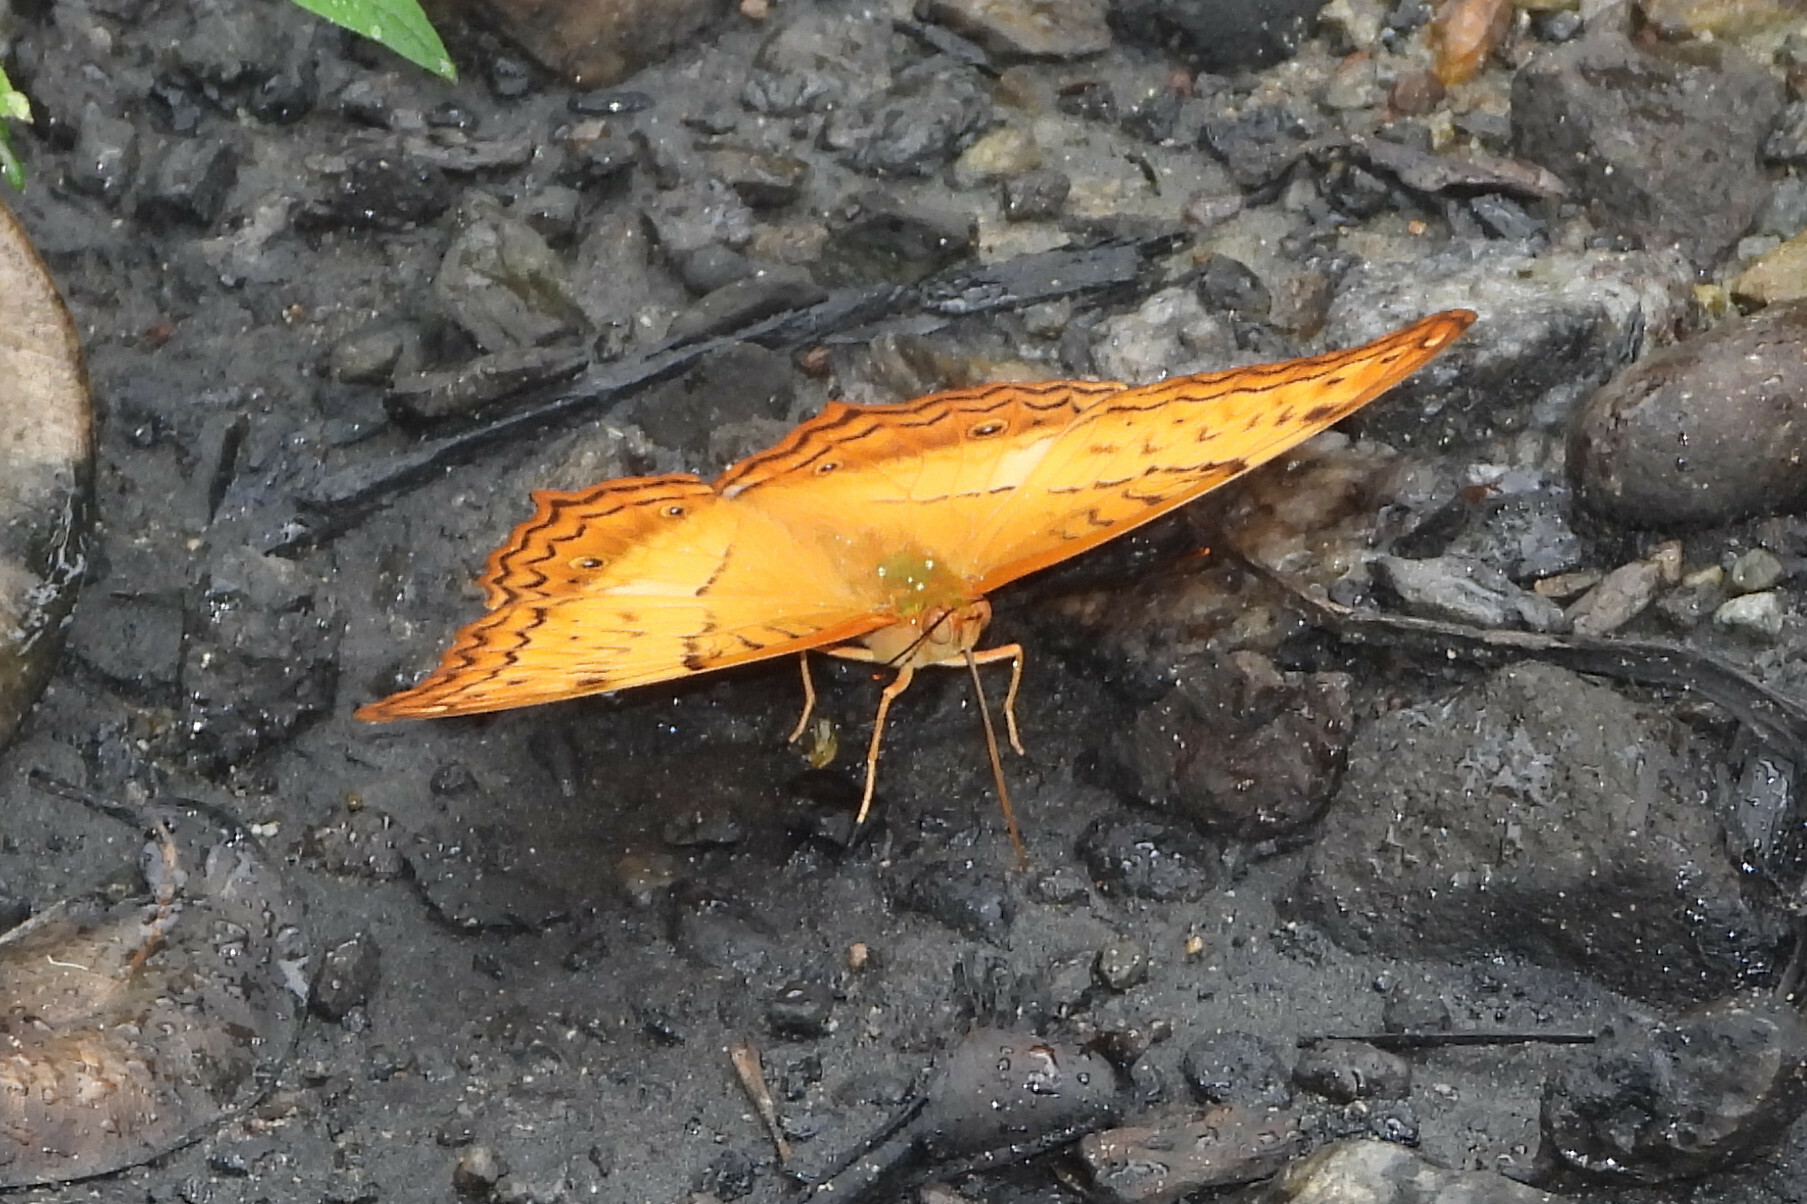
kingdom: Animalia
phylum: Arthropoda
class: Insecta
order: Lepidoptera
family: Nymphalidae
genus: Vindula
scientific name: Vindula erota
